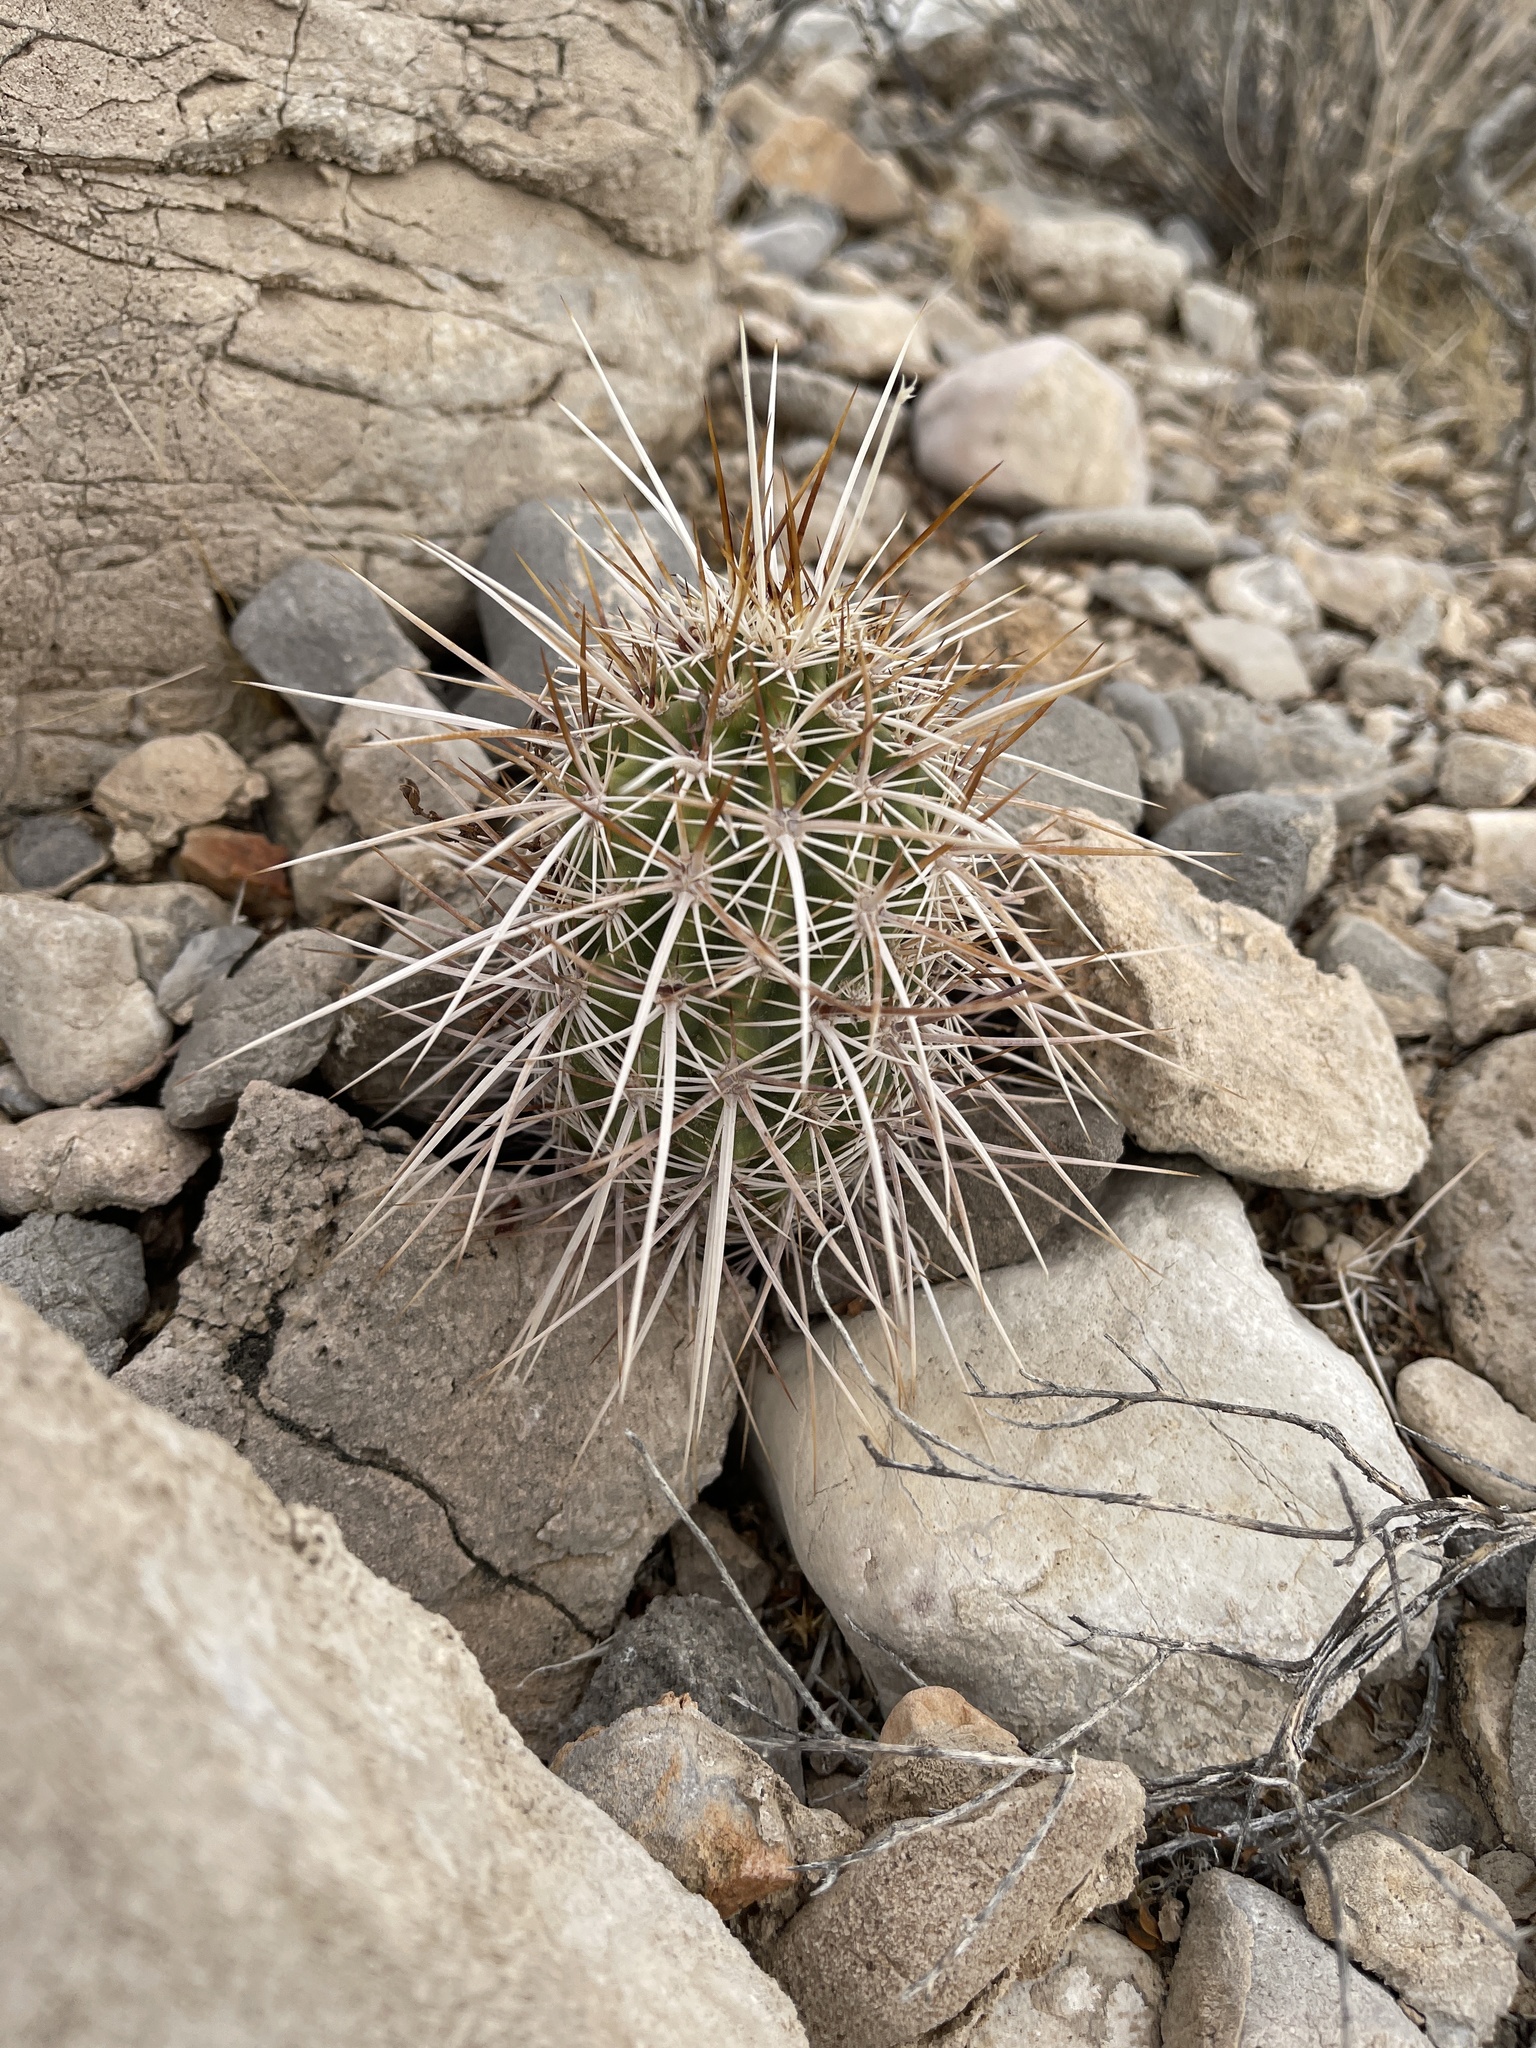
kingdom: Plantae
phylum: Tracheophyta
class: Magnoliopsida
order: Caryophyllales
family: Cactaceae
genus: Echinocereus
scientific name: Echinocereus engelmannii
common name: Engelmann's hedgehog cactus
